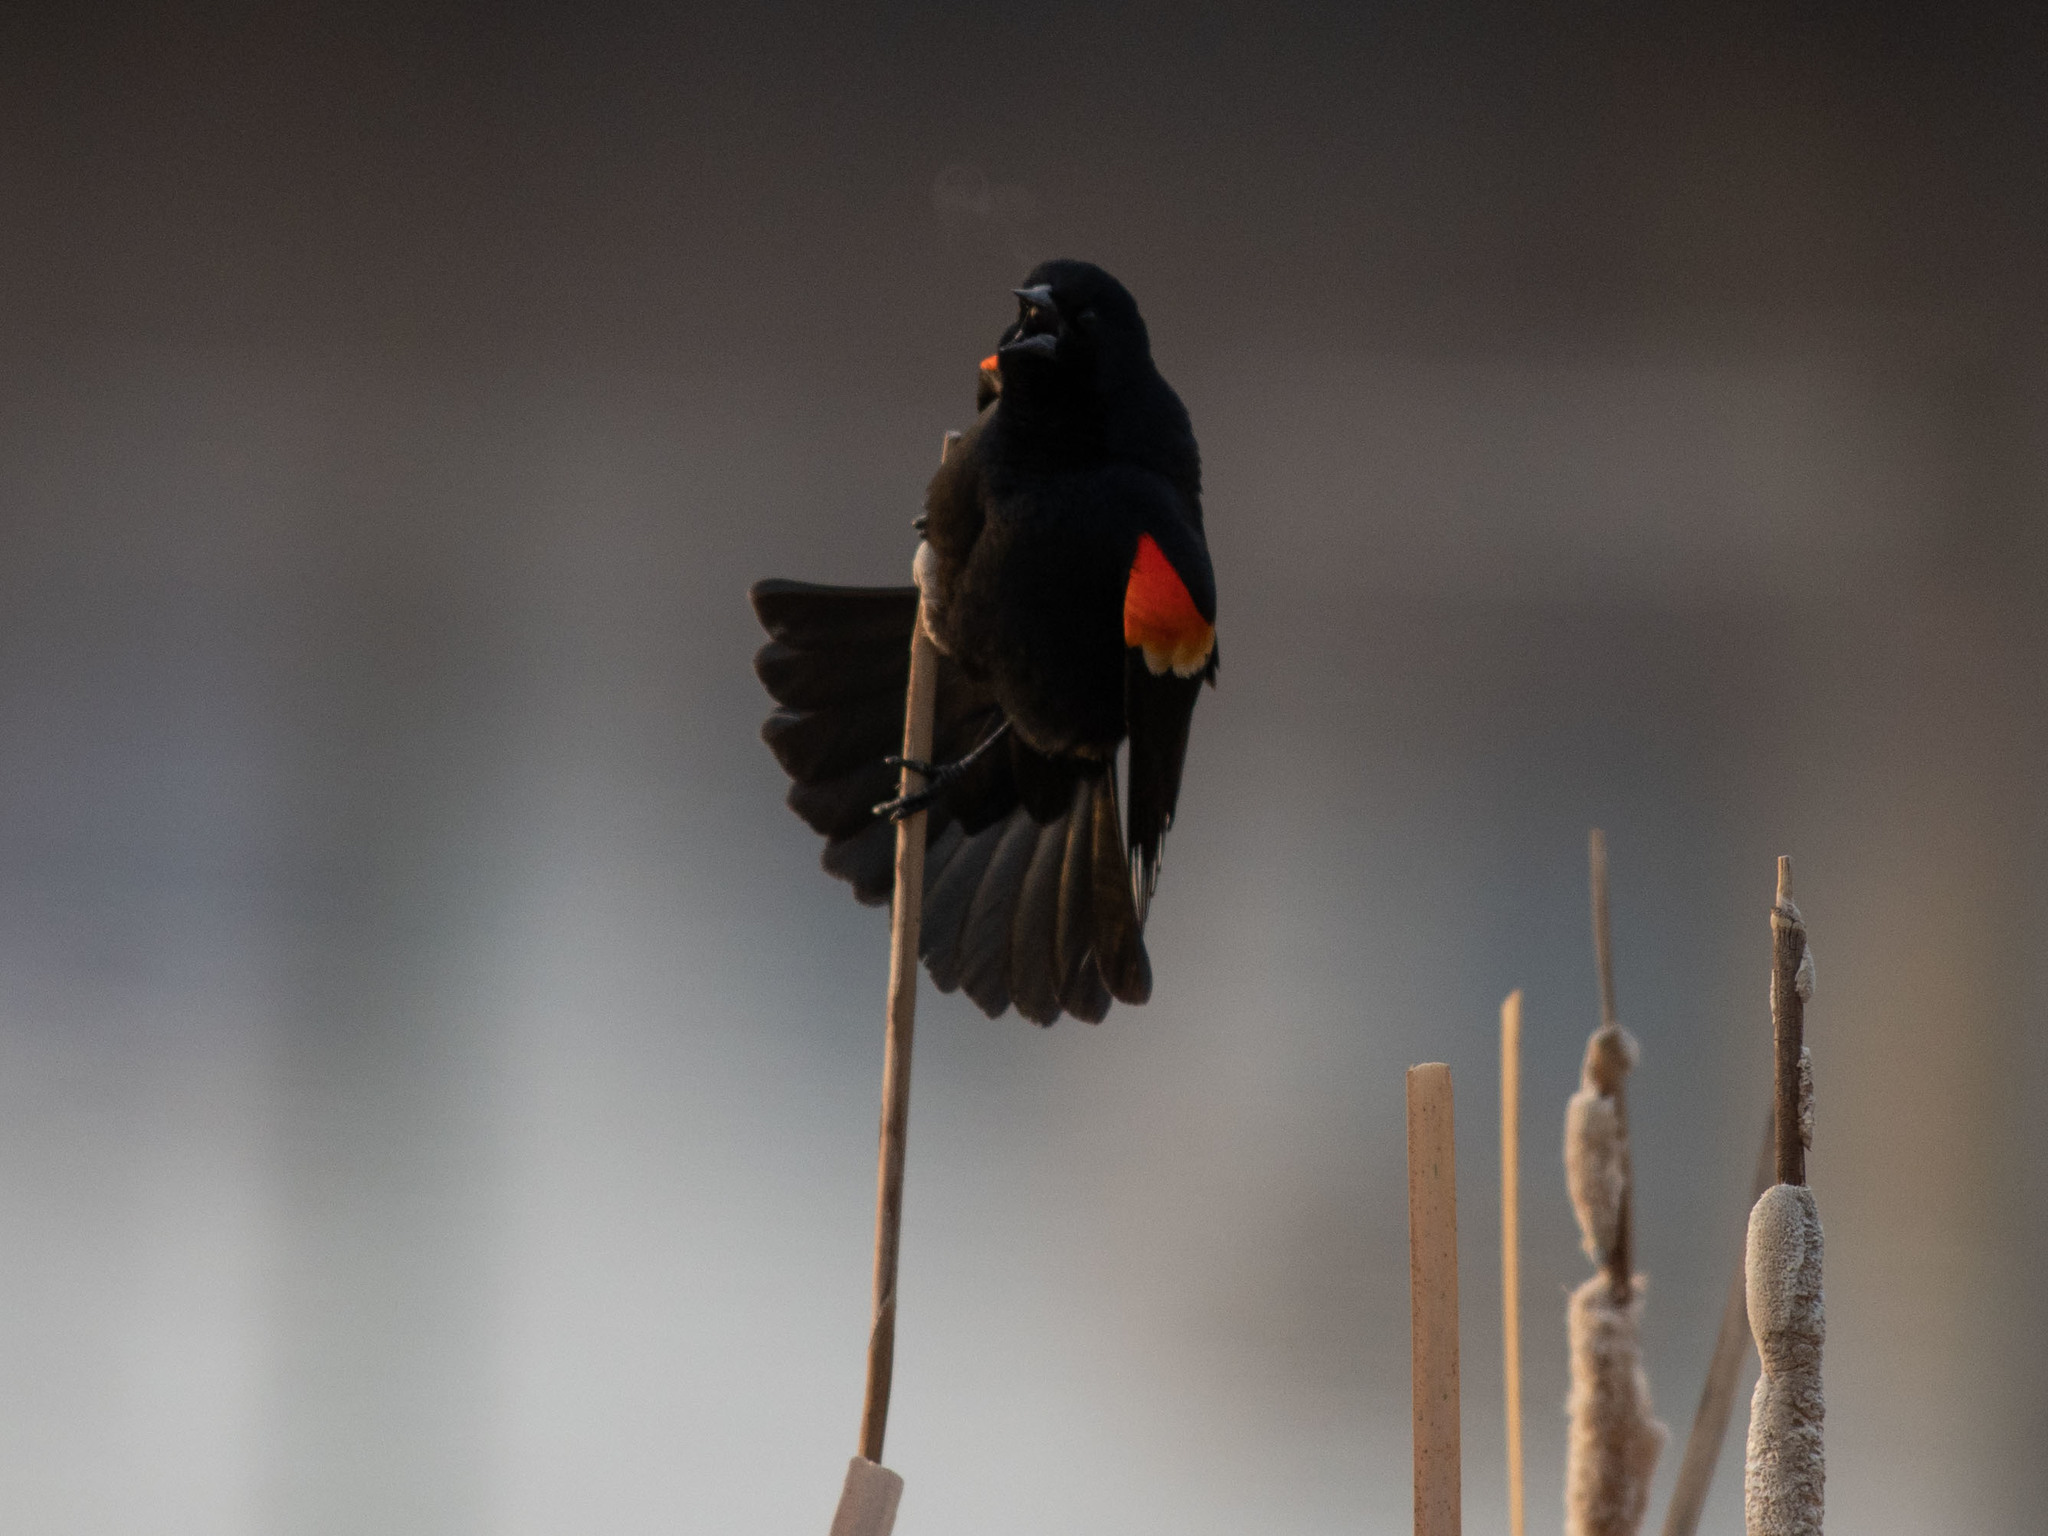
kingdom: Animalia
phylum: Chordata
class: Aves
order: Passeriformes
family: Icteridae
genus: Agelaius
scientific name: Agelaius phoeniceus
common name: Red-winged blackbird
